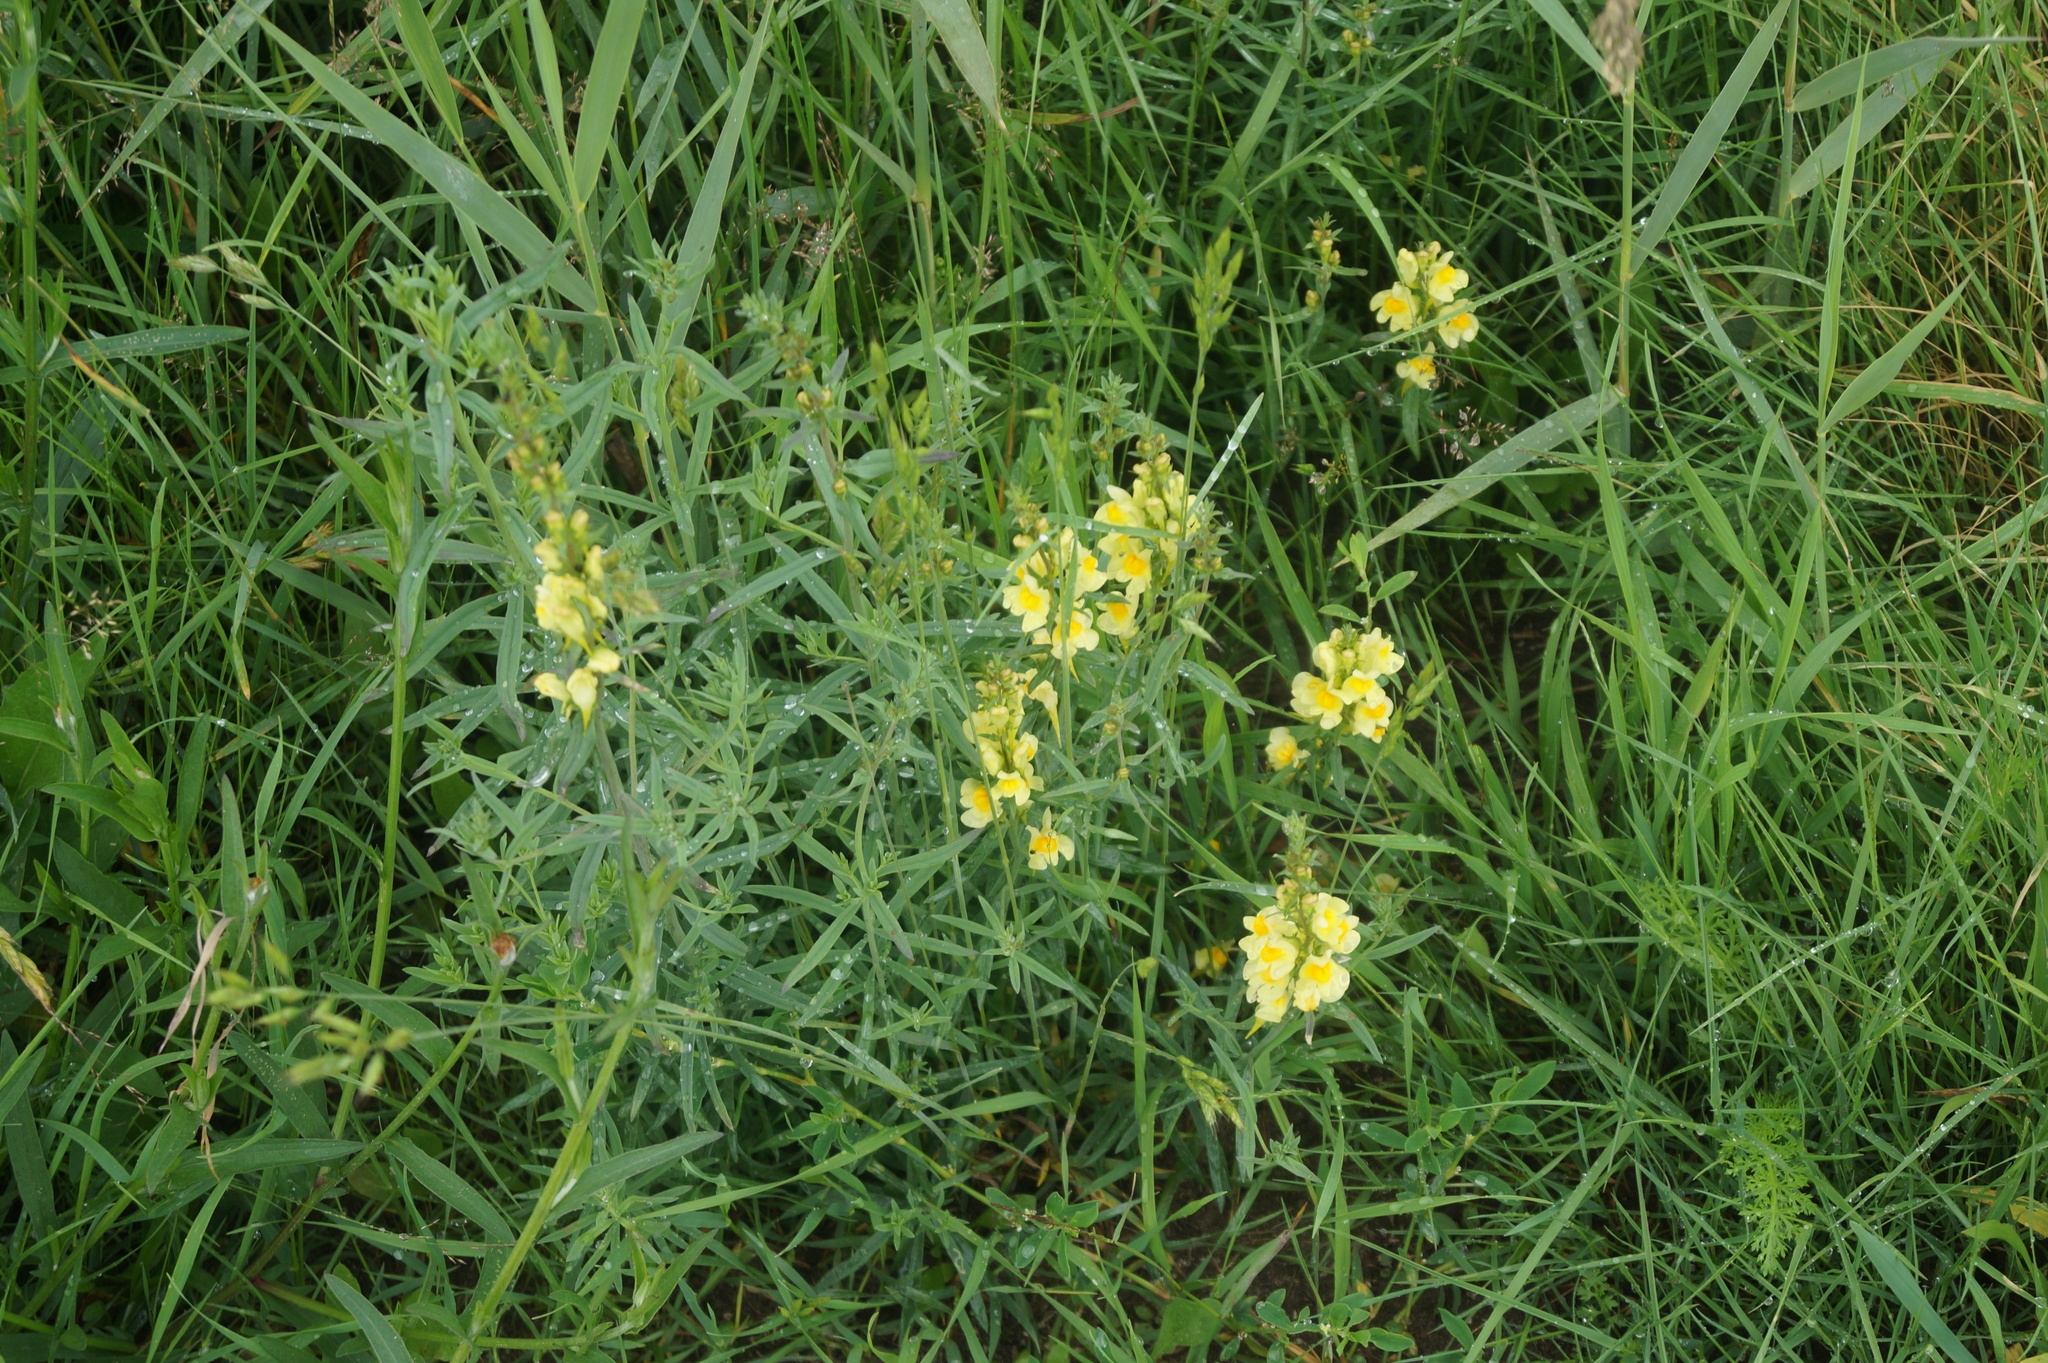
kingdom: Plantae
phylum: Tracheophyta
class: Magnoliopsida
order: Lamiales
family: Plantaginaceae
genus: Linaria
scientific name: Linaria vulgaris
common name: Butter and eggs
